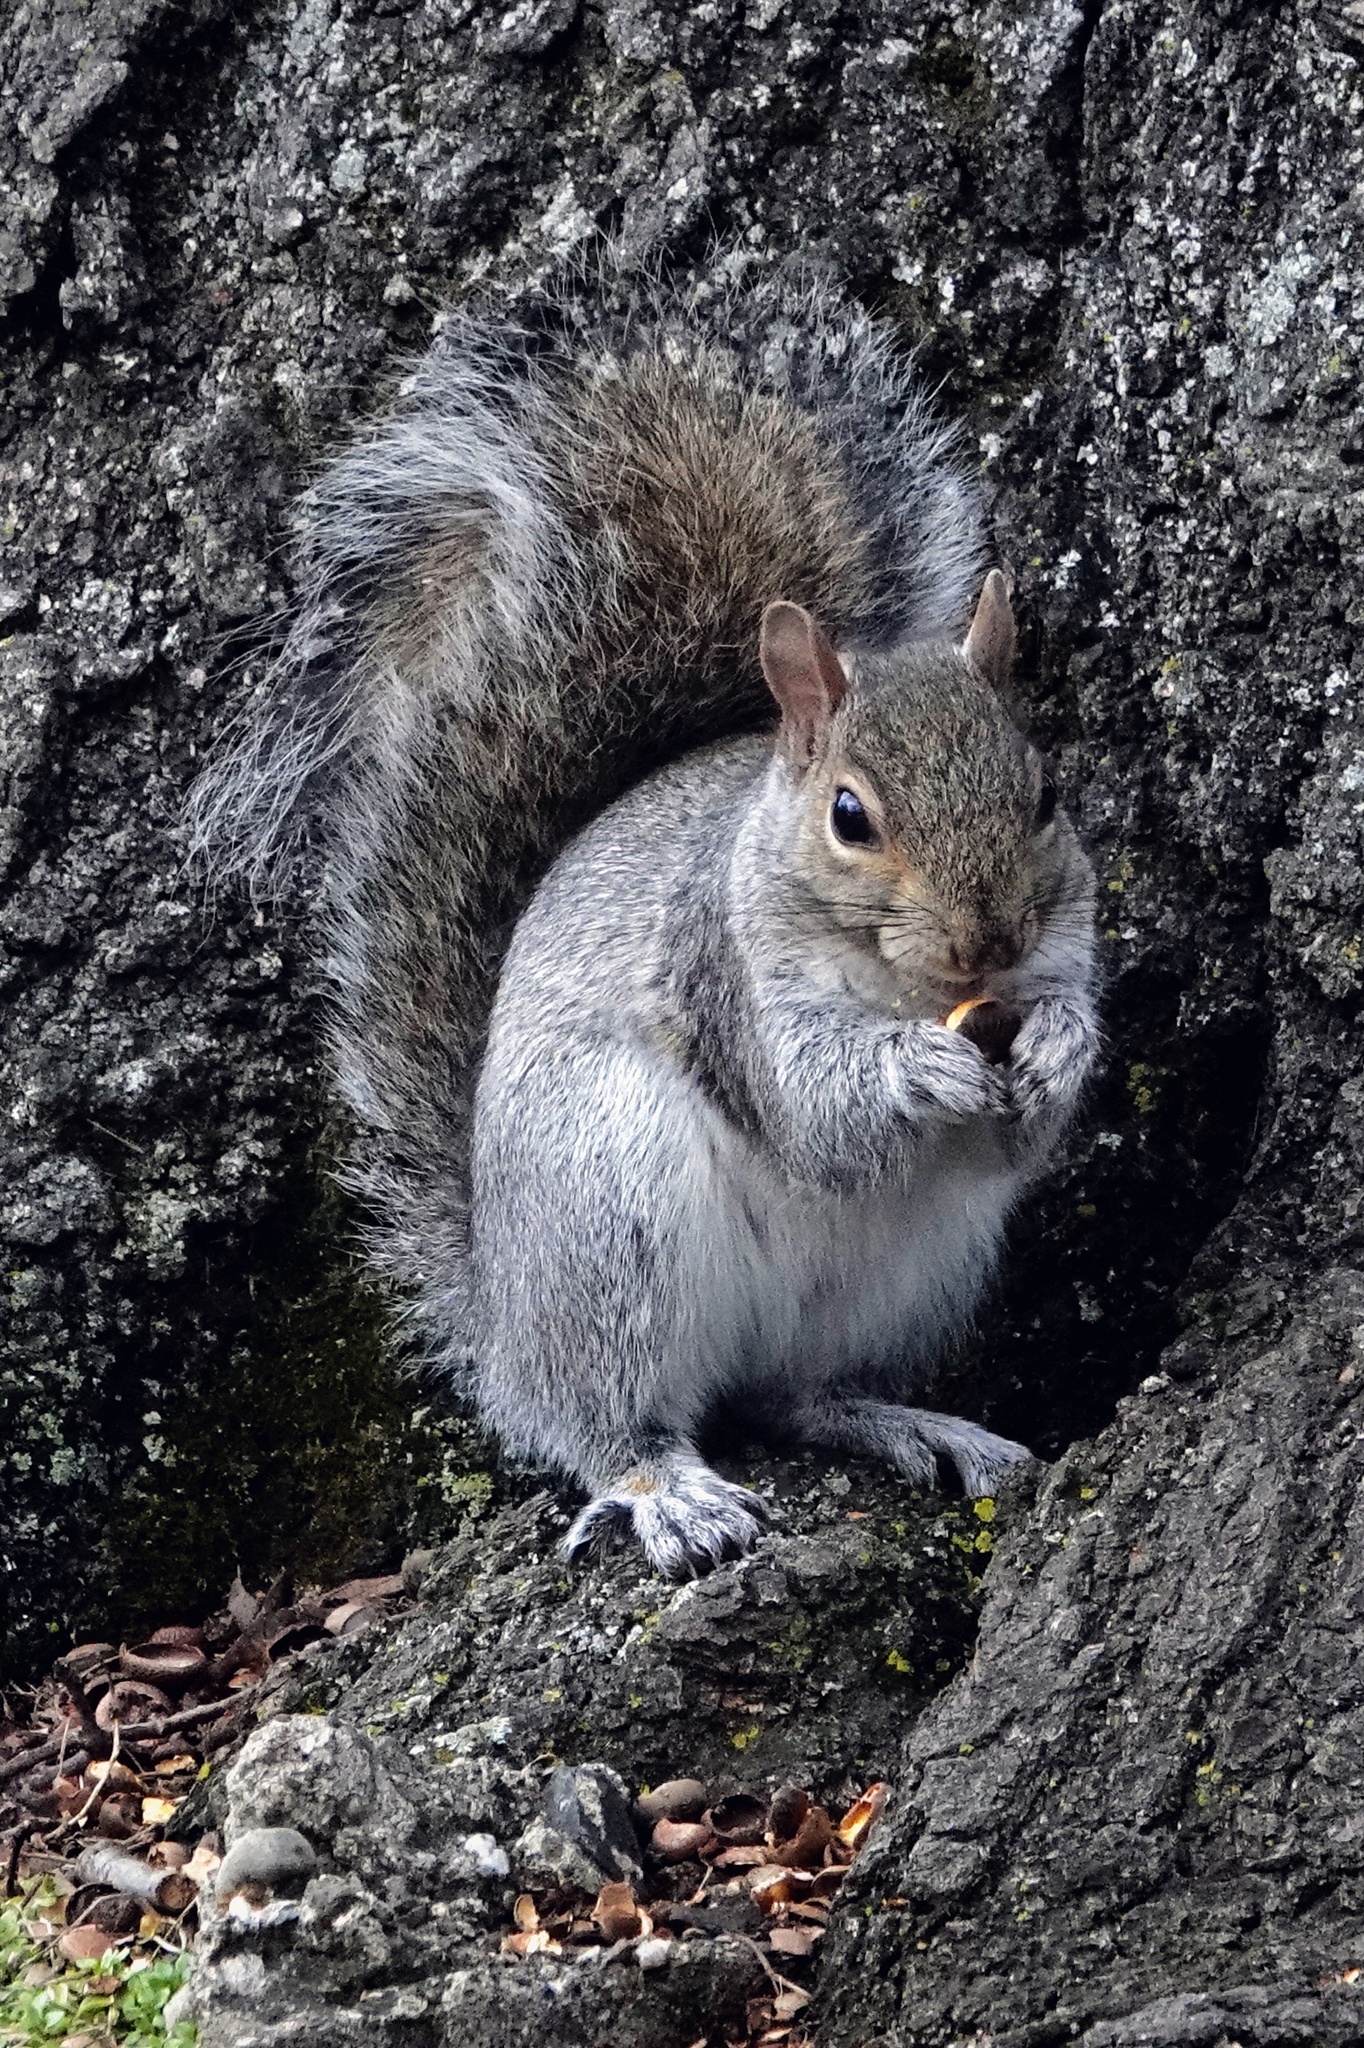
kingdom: Animalia
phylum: Chordata
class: Mammalia
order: Rodentia
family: Sciuridae
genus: Sciurus
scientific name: Sciurus carolinensis
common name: Eastern gray squirrel
